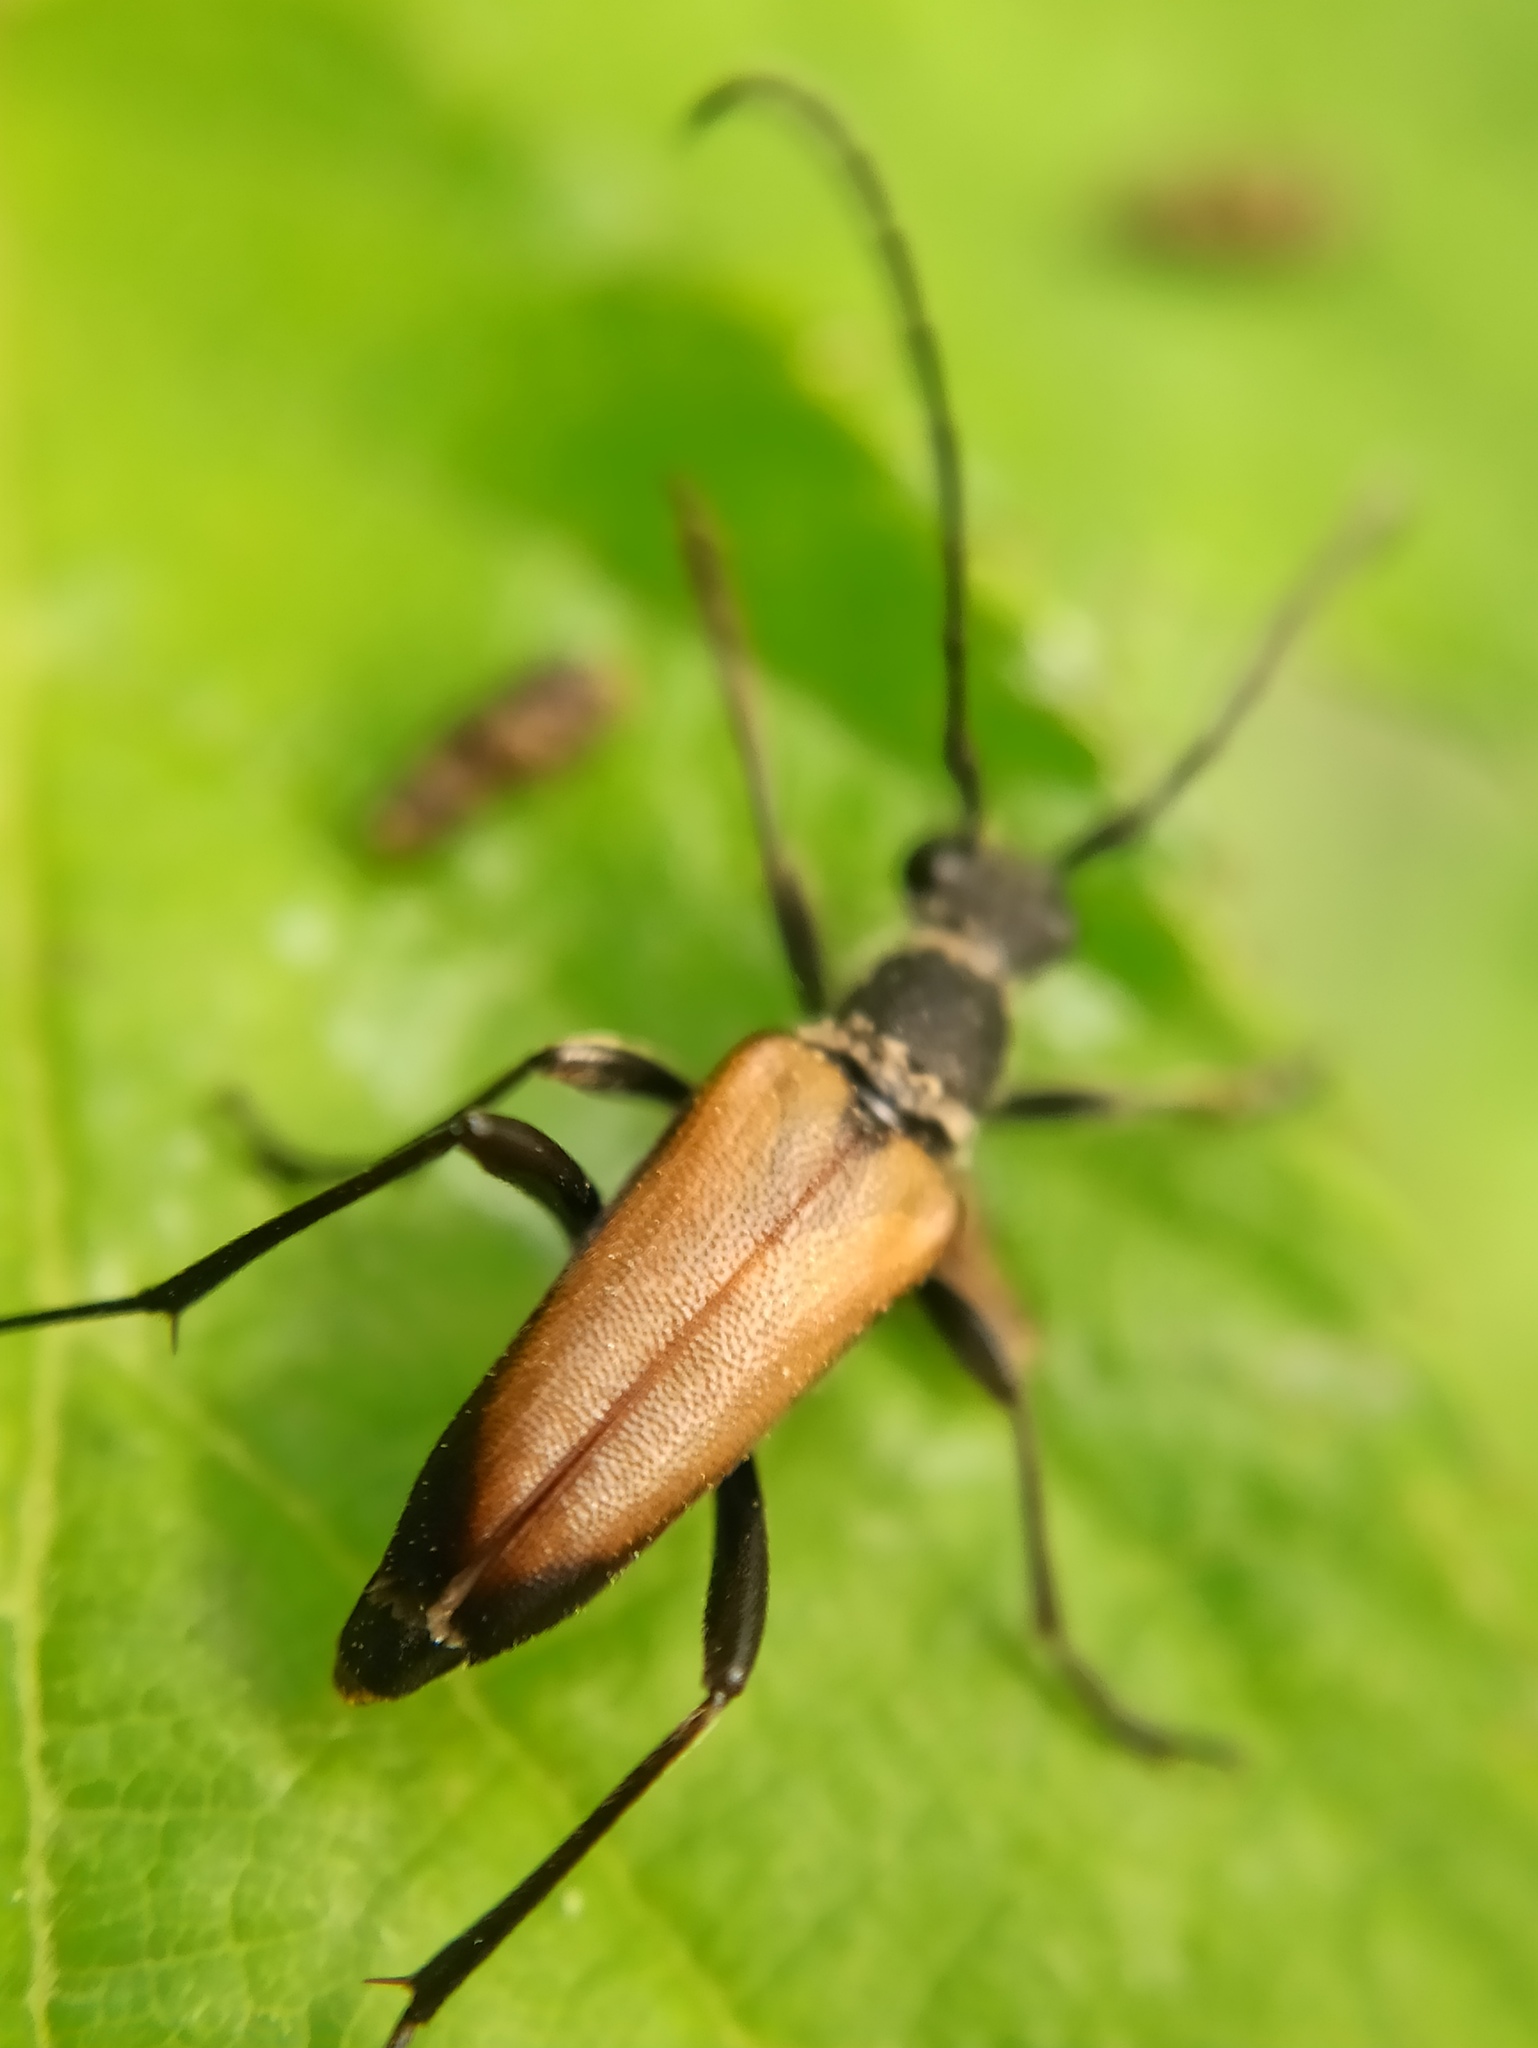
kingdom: Animalia
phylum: Arthropoda
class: Insecta
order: Coleoptera
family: Cerambycidae
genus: Anastrangalia
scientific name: Anastrangalia dubia
